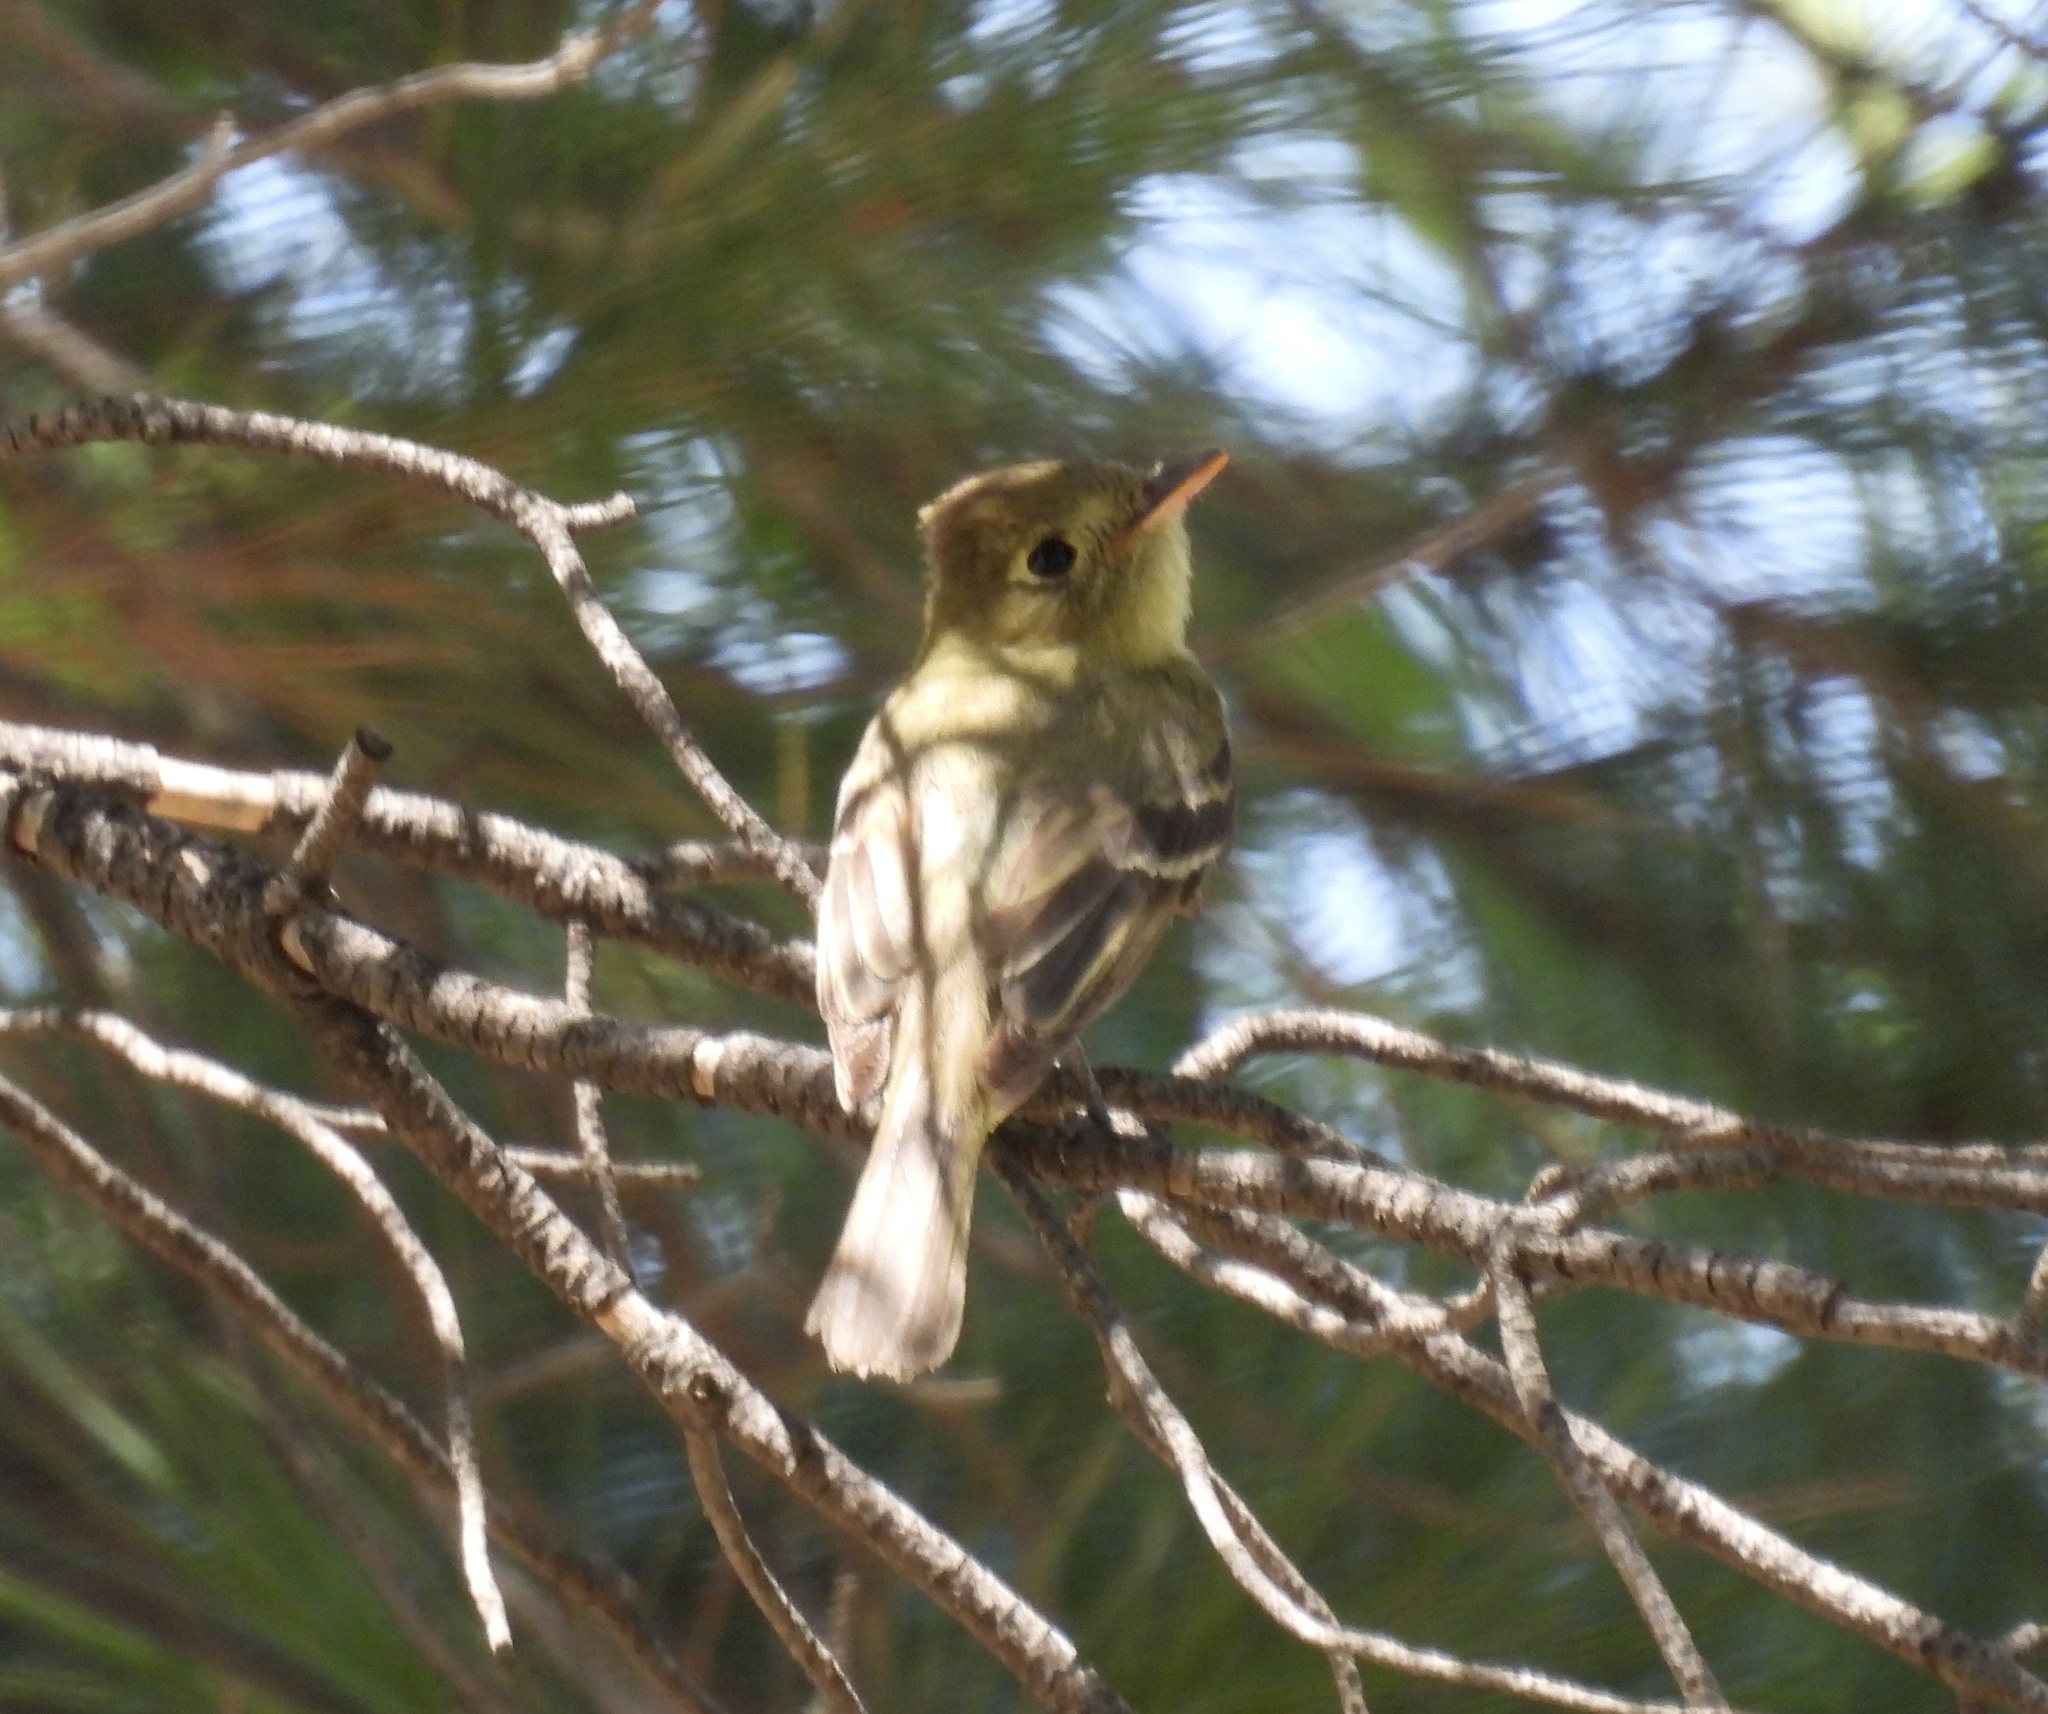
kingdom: Animalia
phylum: Chordata
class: Aves
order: Passeriformes
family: Tyrannidae
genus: Empidonax
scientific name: Empidonax difficilis
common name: Pacific-slope flycatcher
